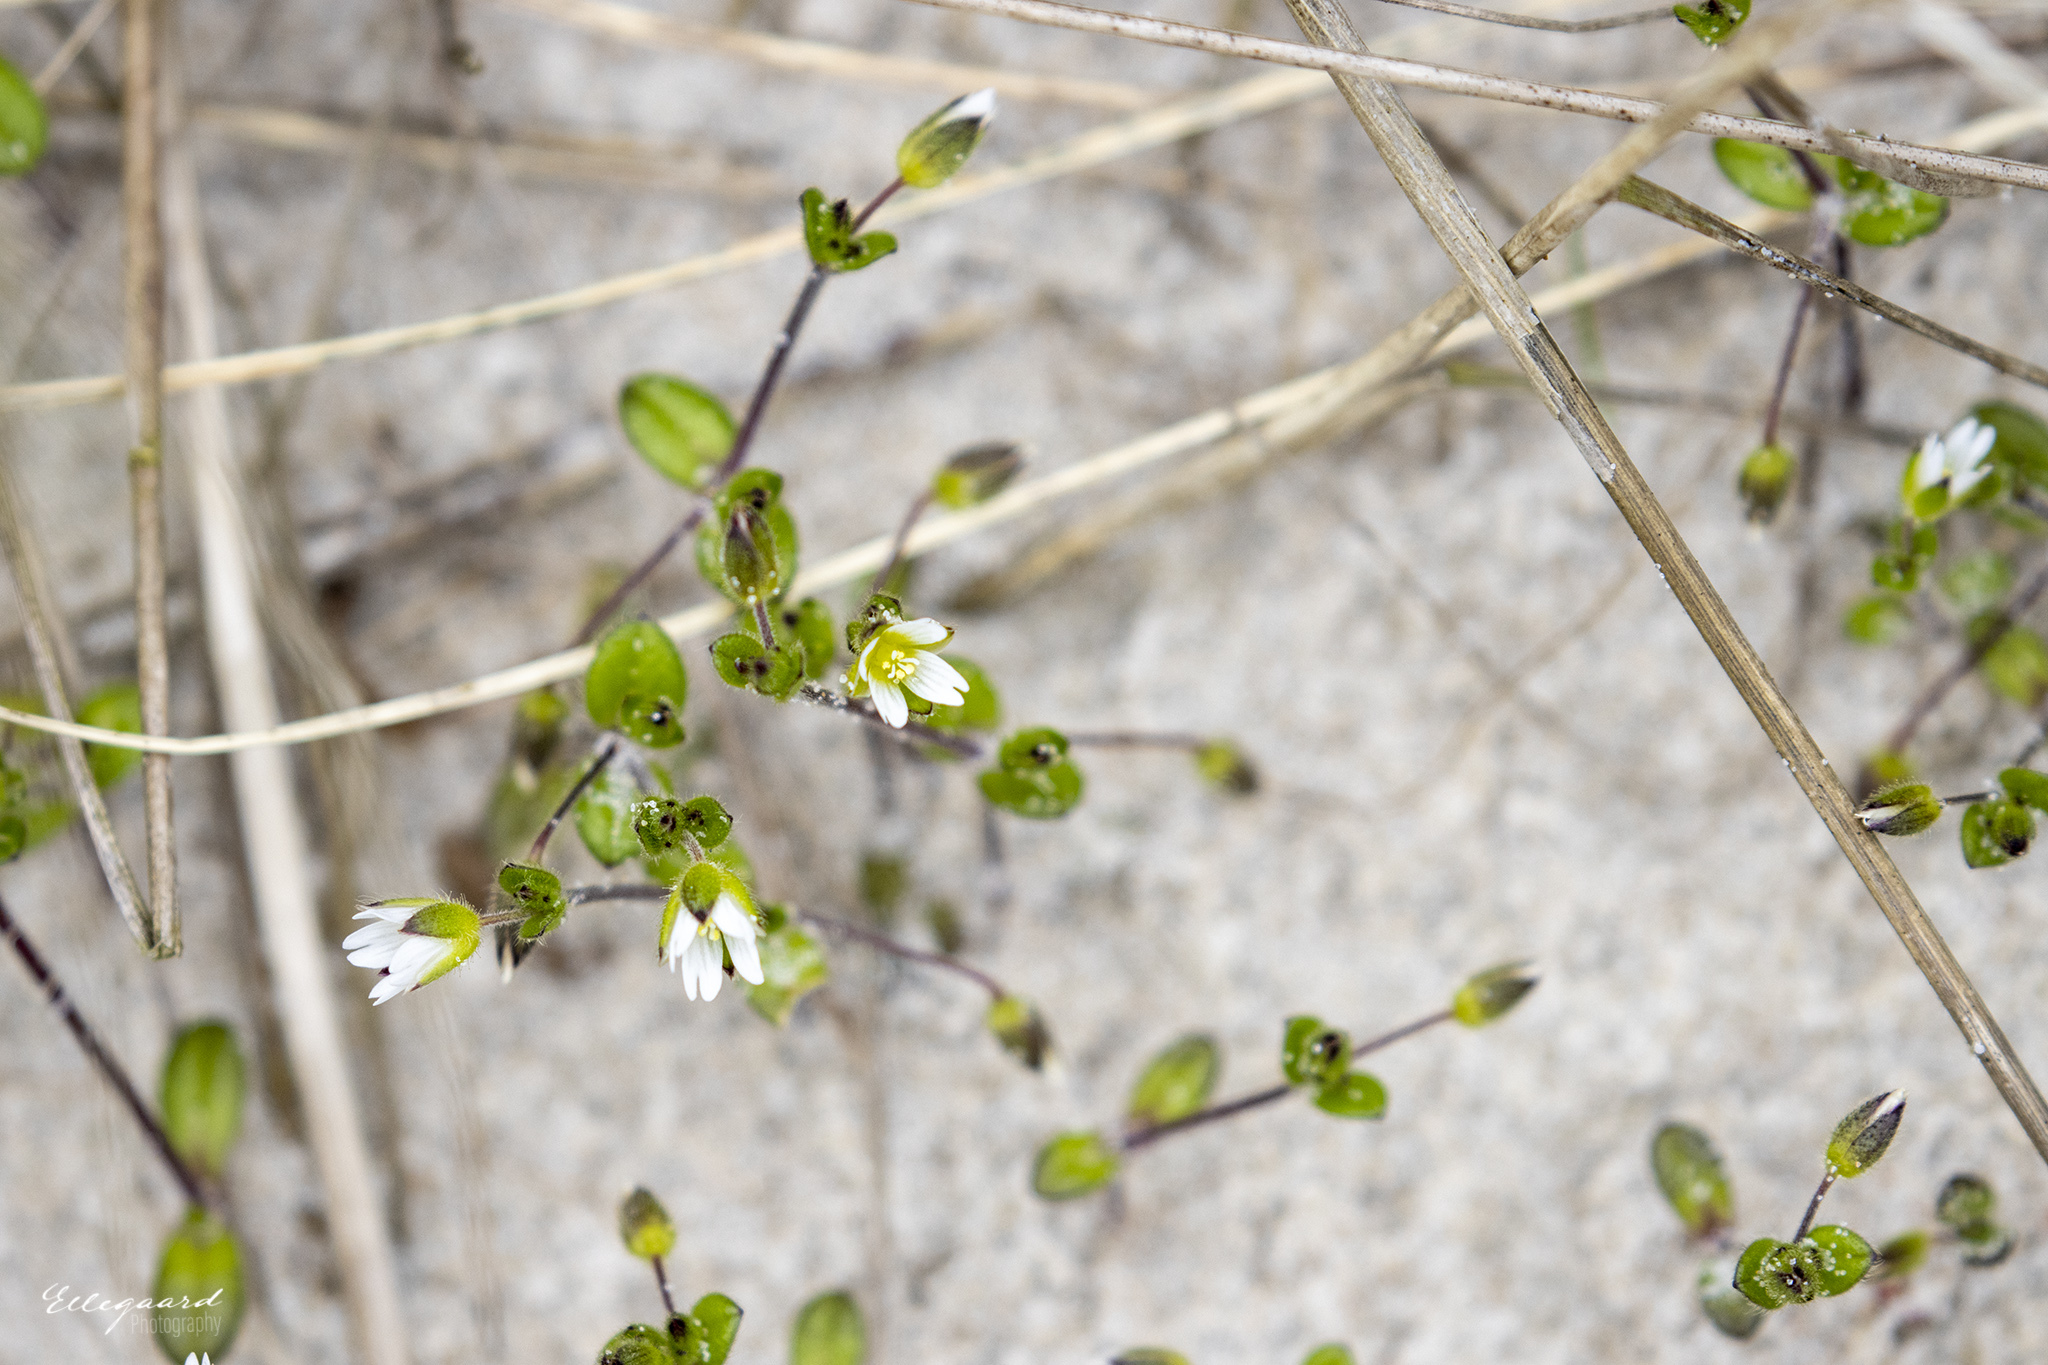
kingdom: Plantae
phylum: Tracheophyta
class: Magnoliopsida
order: Caryophyllales
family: Caryophyllaceae
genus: Cerastium
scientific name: Cerastium diffusum
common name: Fourstamen chickweed
